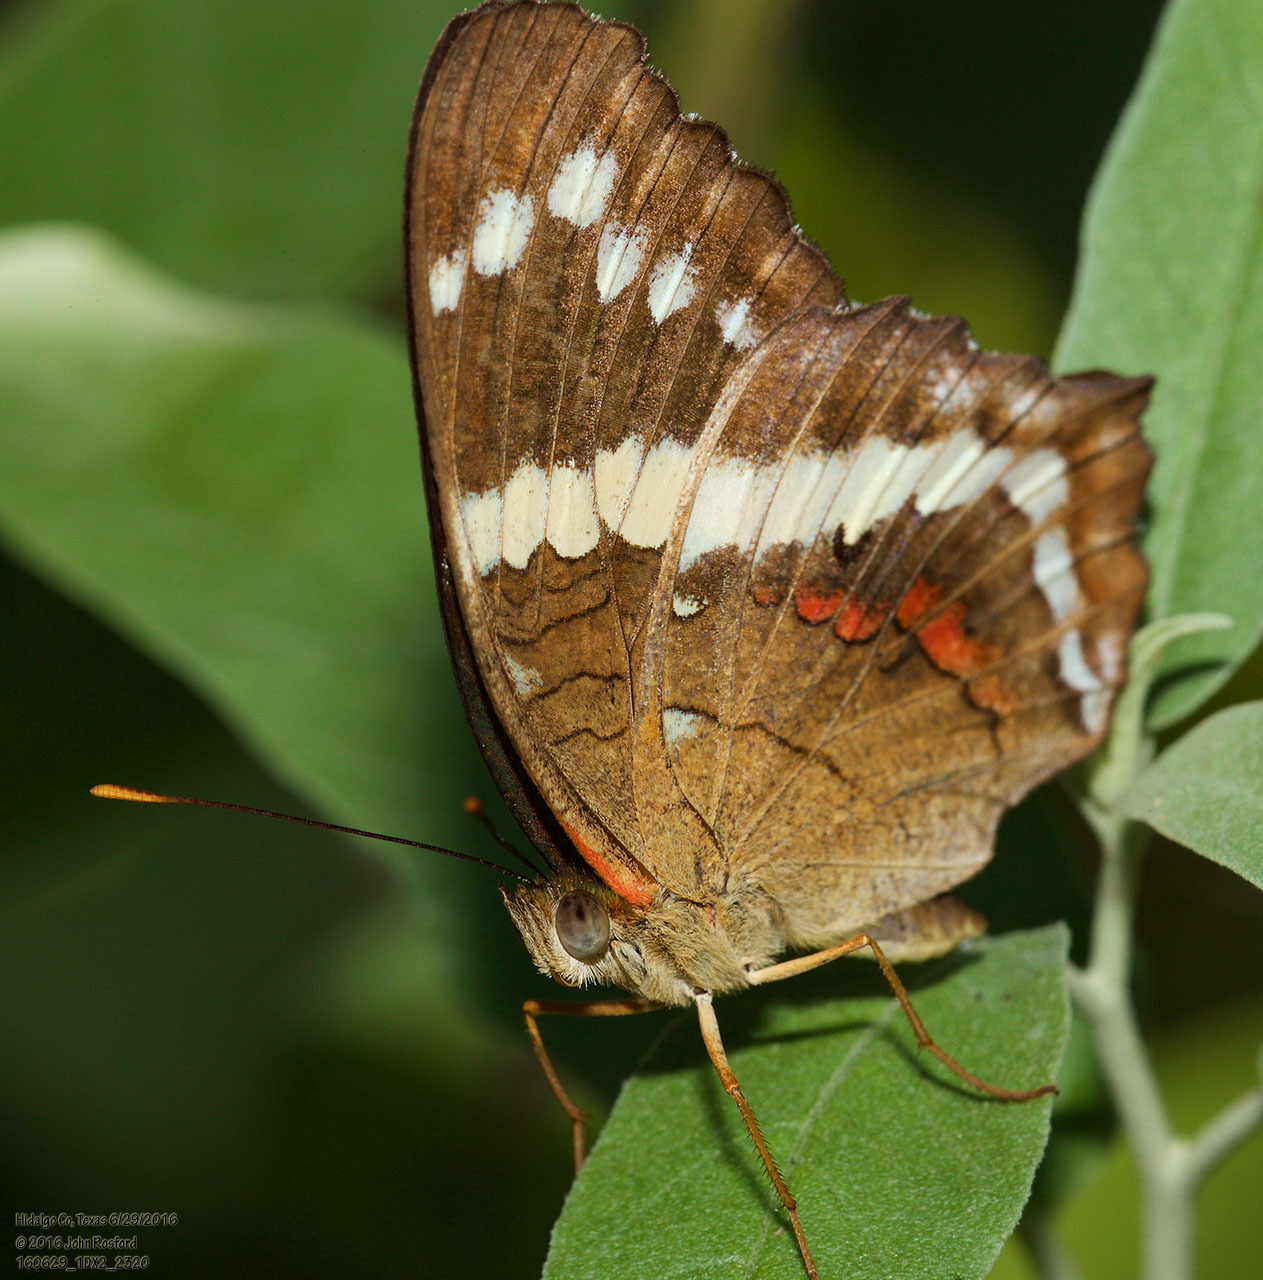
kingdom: Animalia
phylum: Arthropoda
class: Insecta
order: Lepidoptera
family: Nymphalidae
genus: Anartia
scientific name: Anartia fatima
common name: Banded peacock
